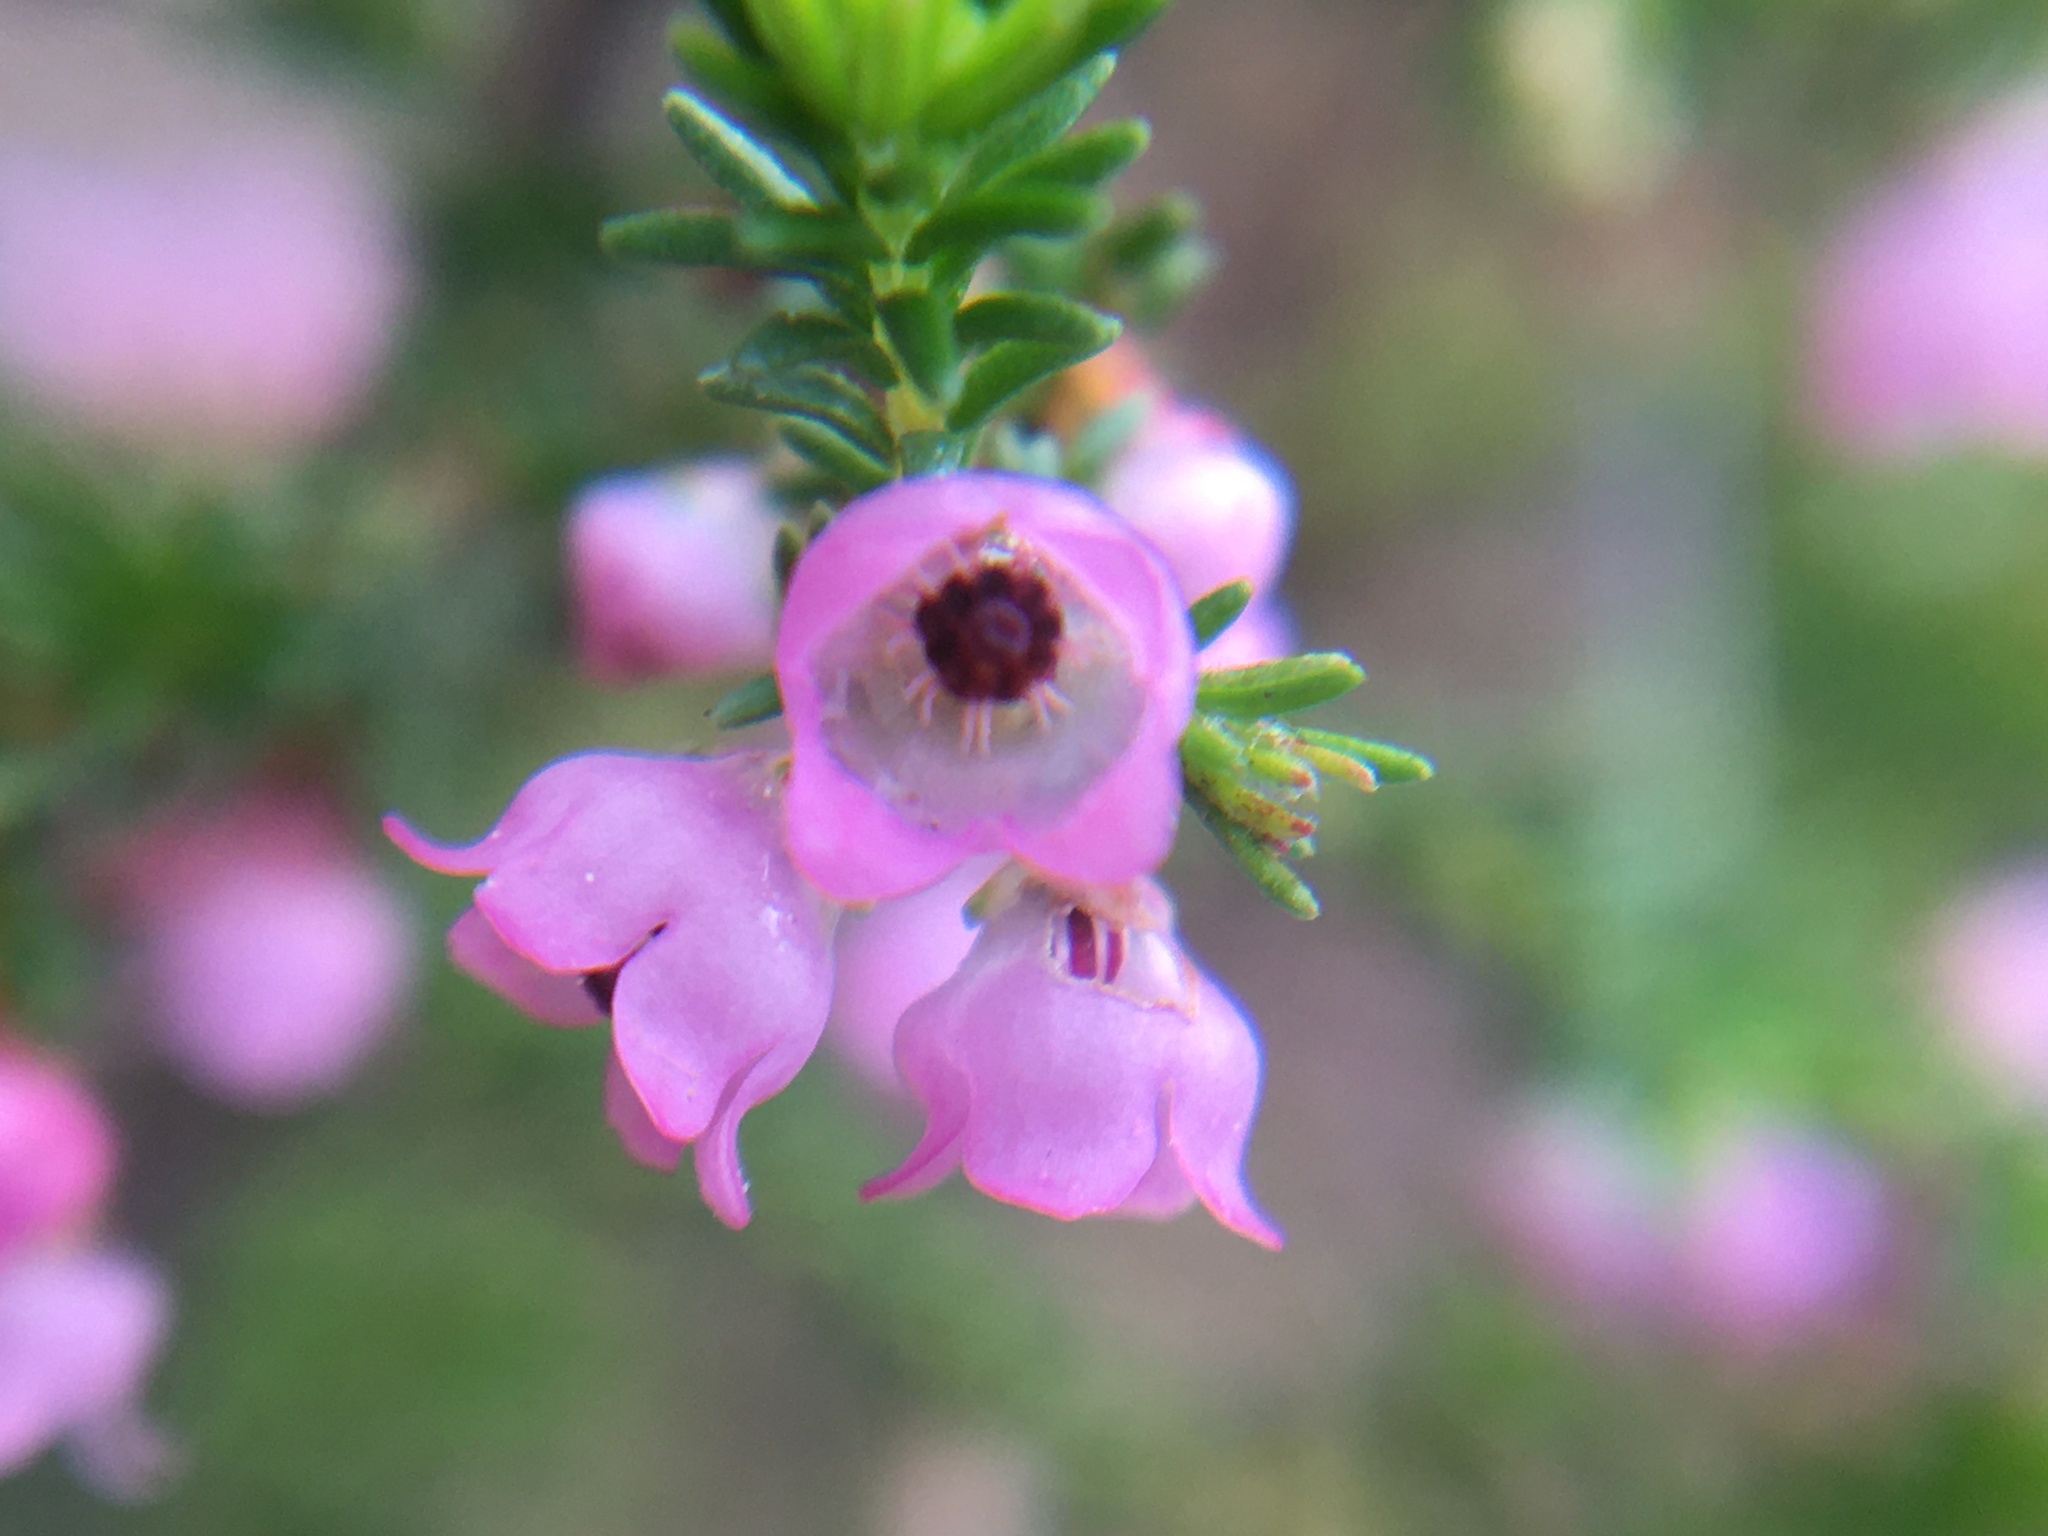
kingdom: Plantae
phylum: Tracheophyta
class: Magnoliopsida
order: Ericales
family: Ericaceae
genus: Erica
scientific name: Erica mauritanica
